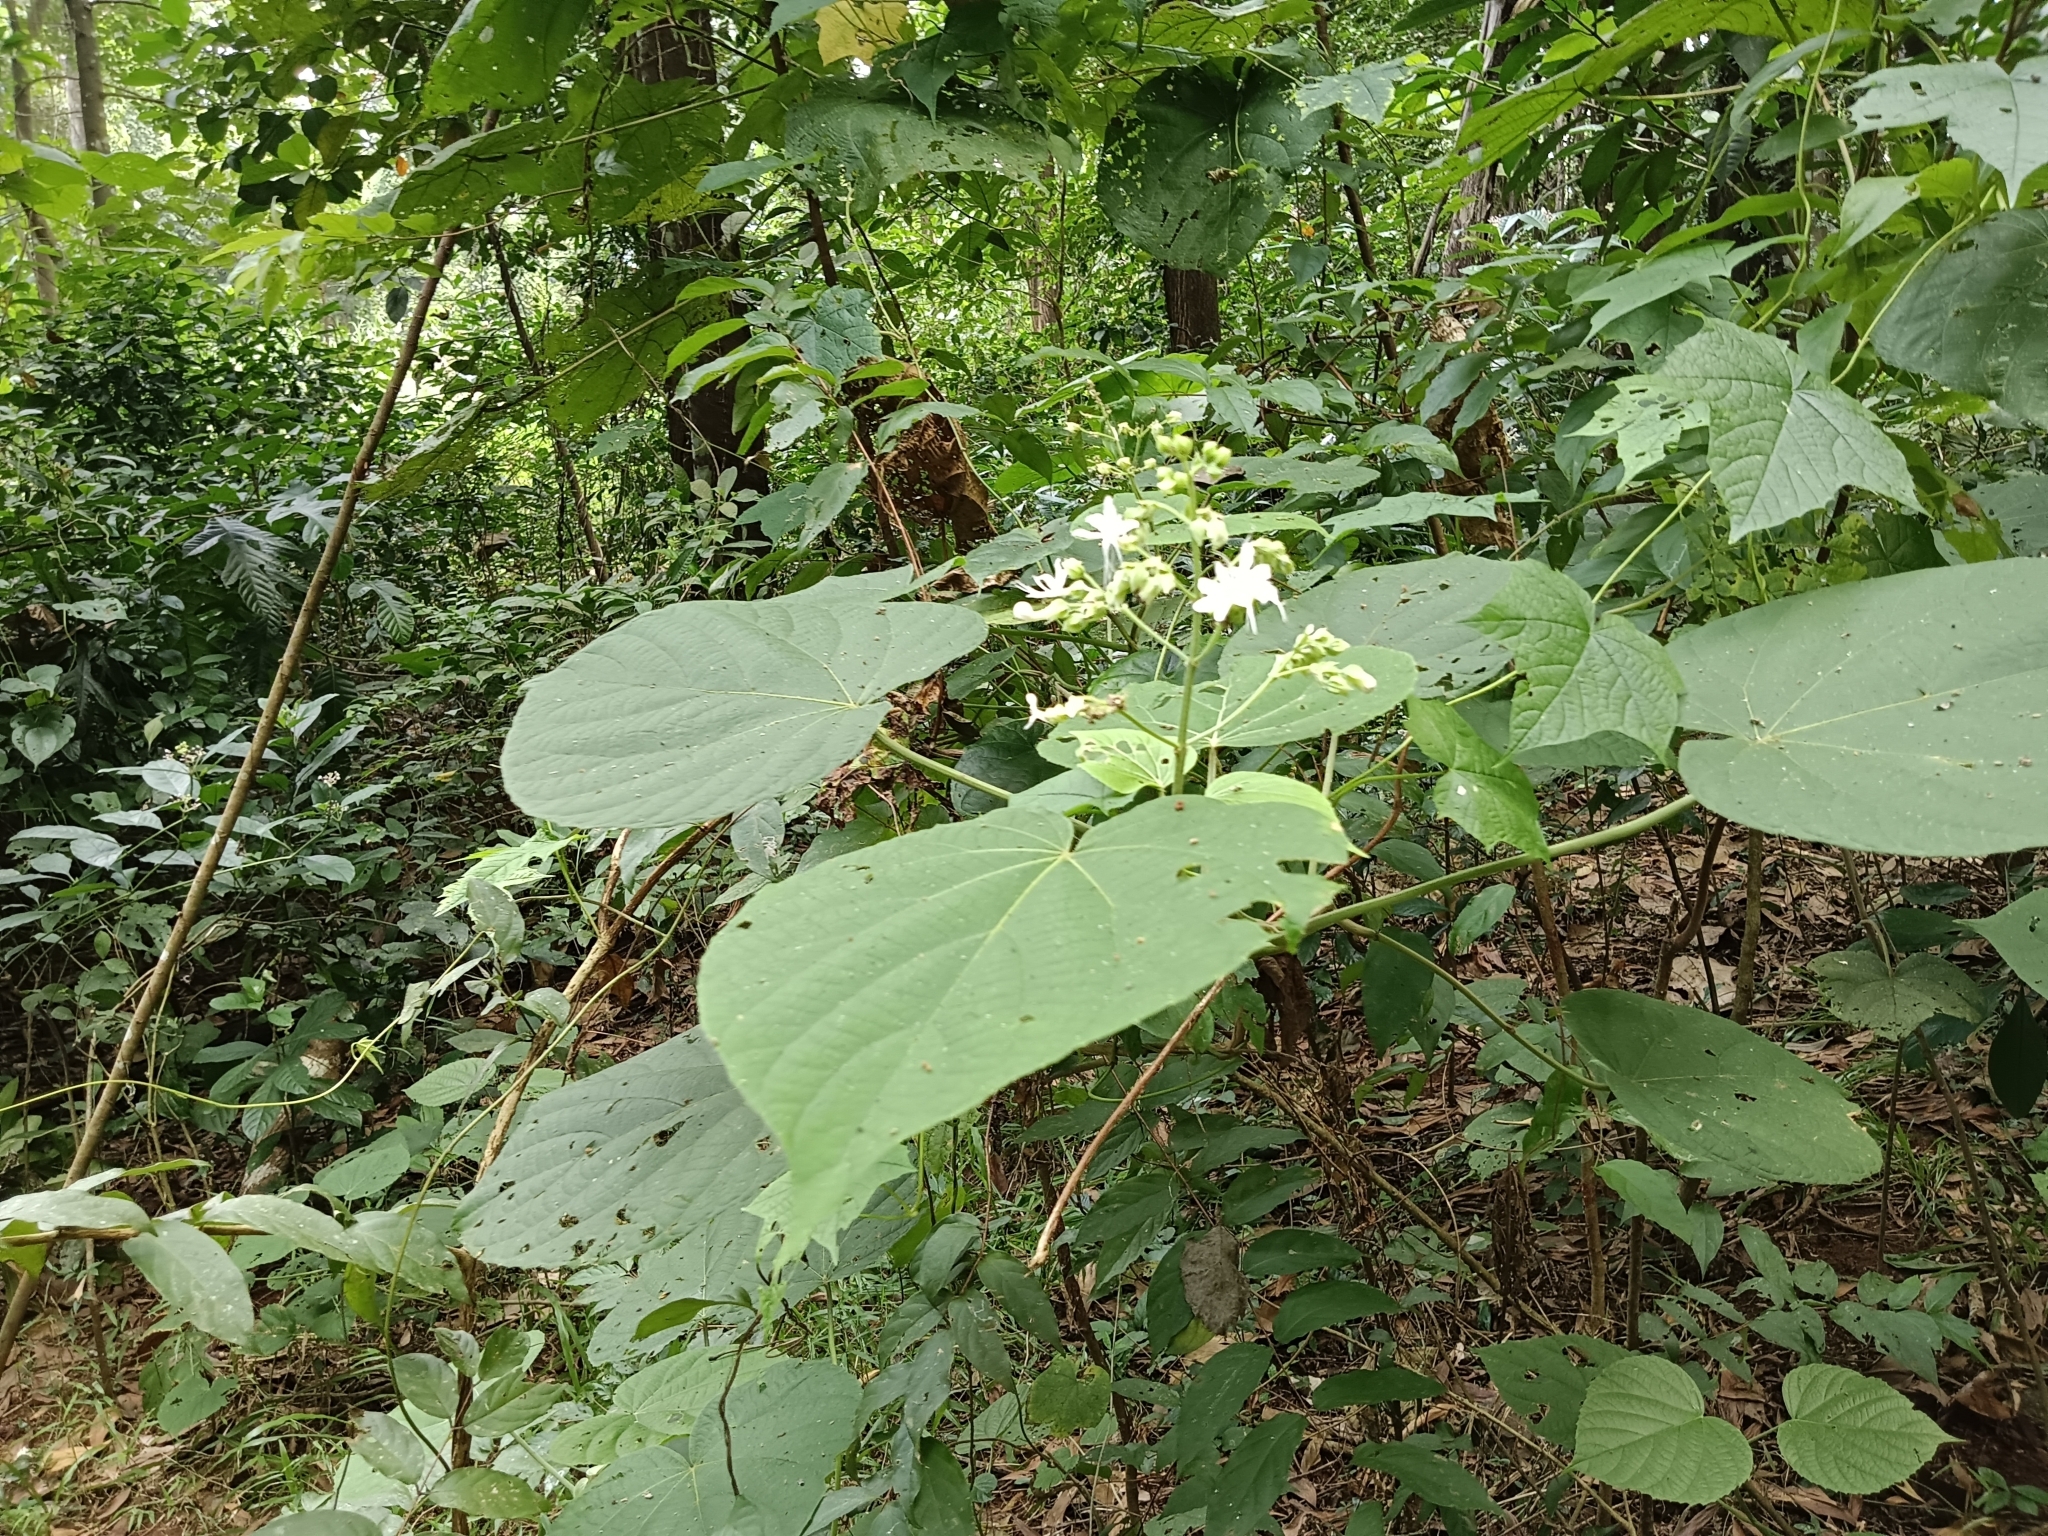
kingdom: Plantae
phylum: Tracheophyta
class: Magnoliopsida
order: Lamiales
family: Lamiaceae
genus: Clerodendrum
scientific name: Clerodendrum infortunatum
